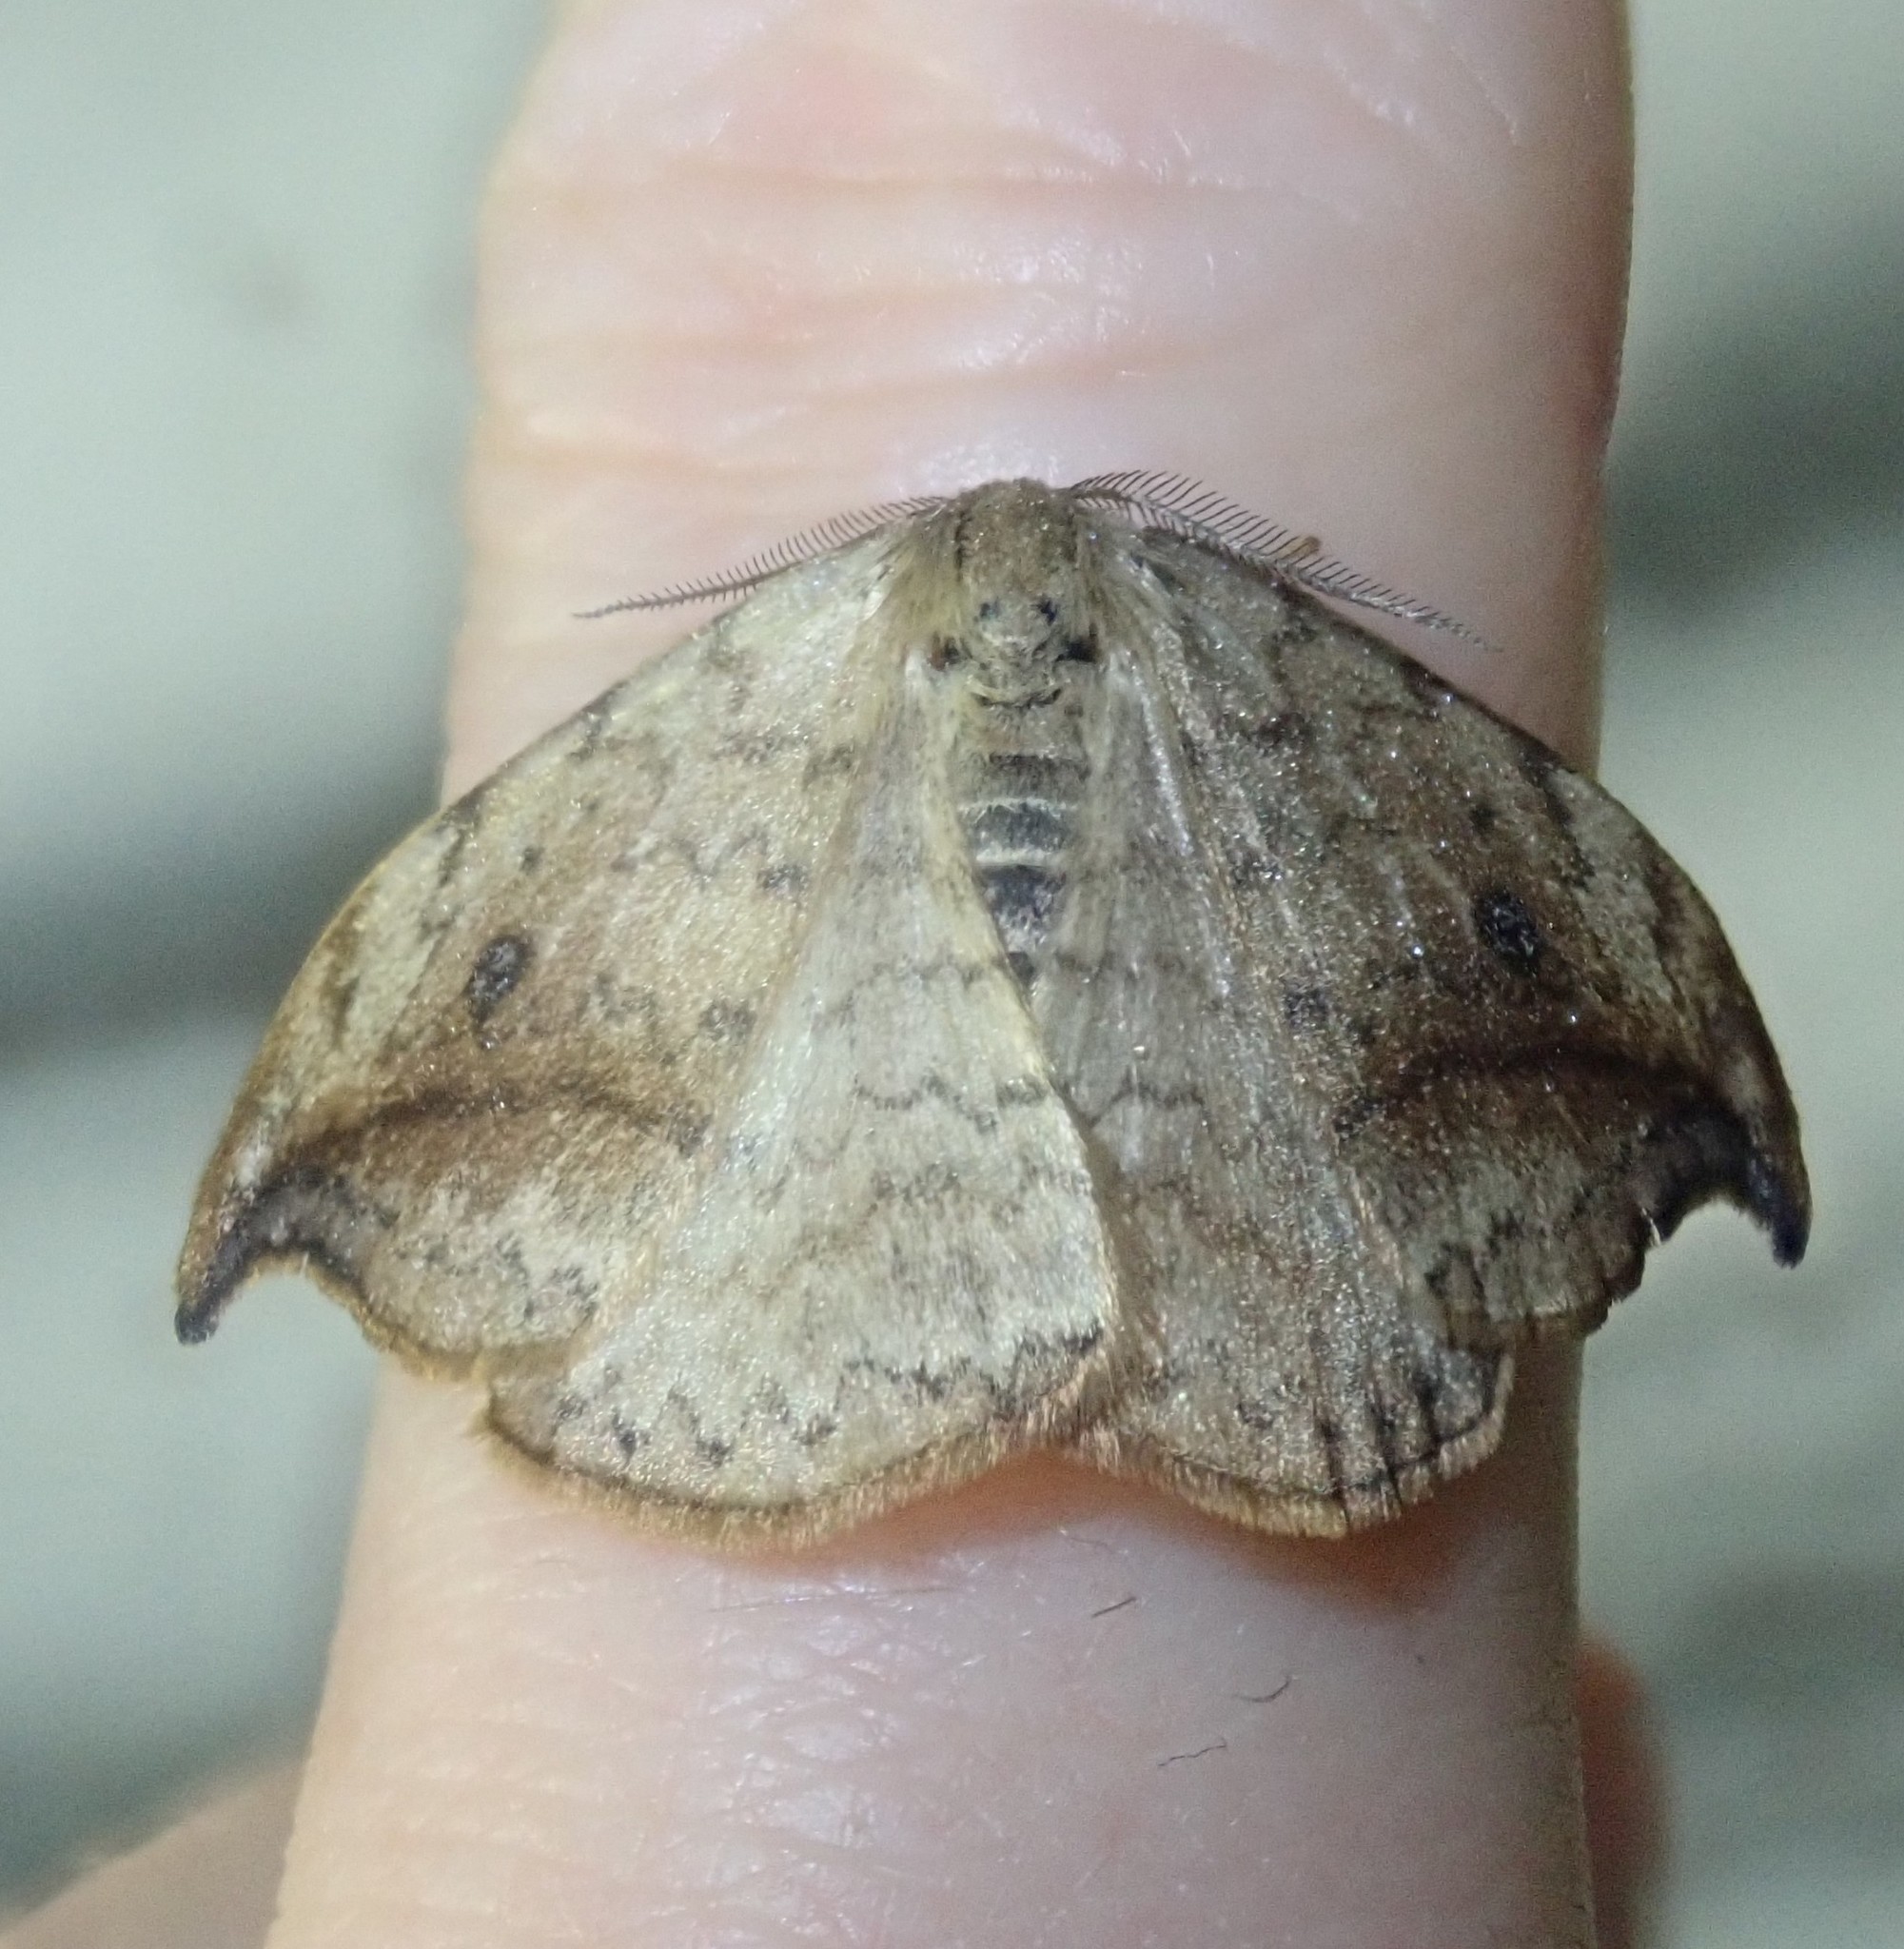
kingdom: Animalia
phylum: Arthropoda
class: Insecta
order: Lepidoptera
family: Drepanidae
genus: Drepana
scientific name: Drepana falcataria
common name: Pebble hook-tip
